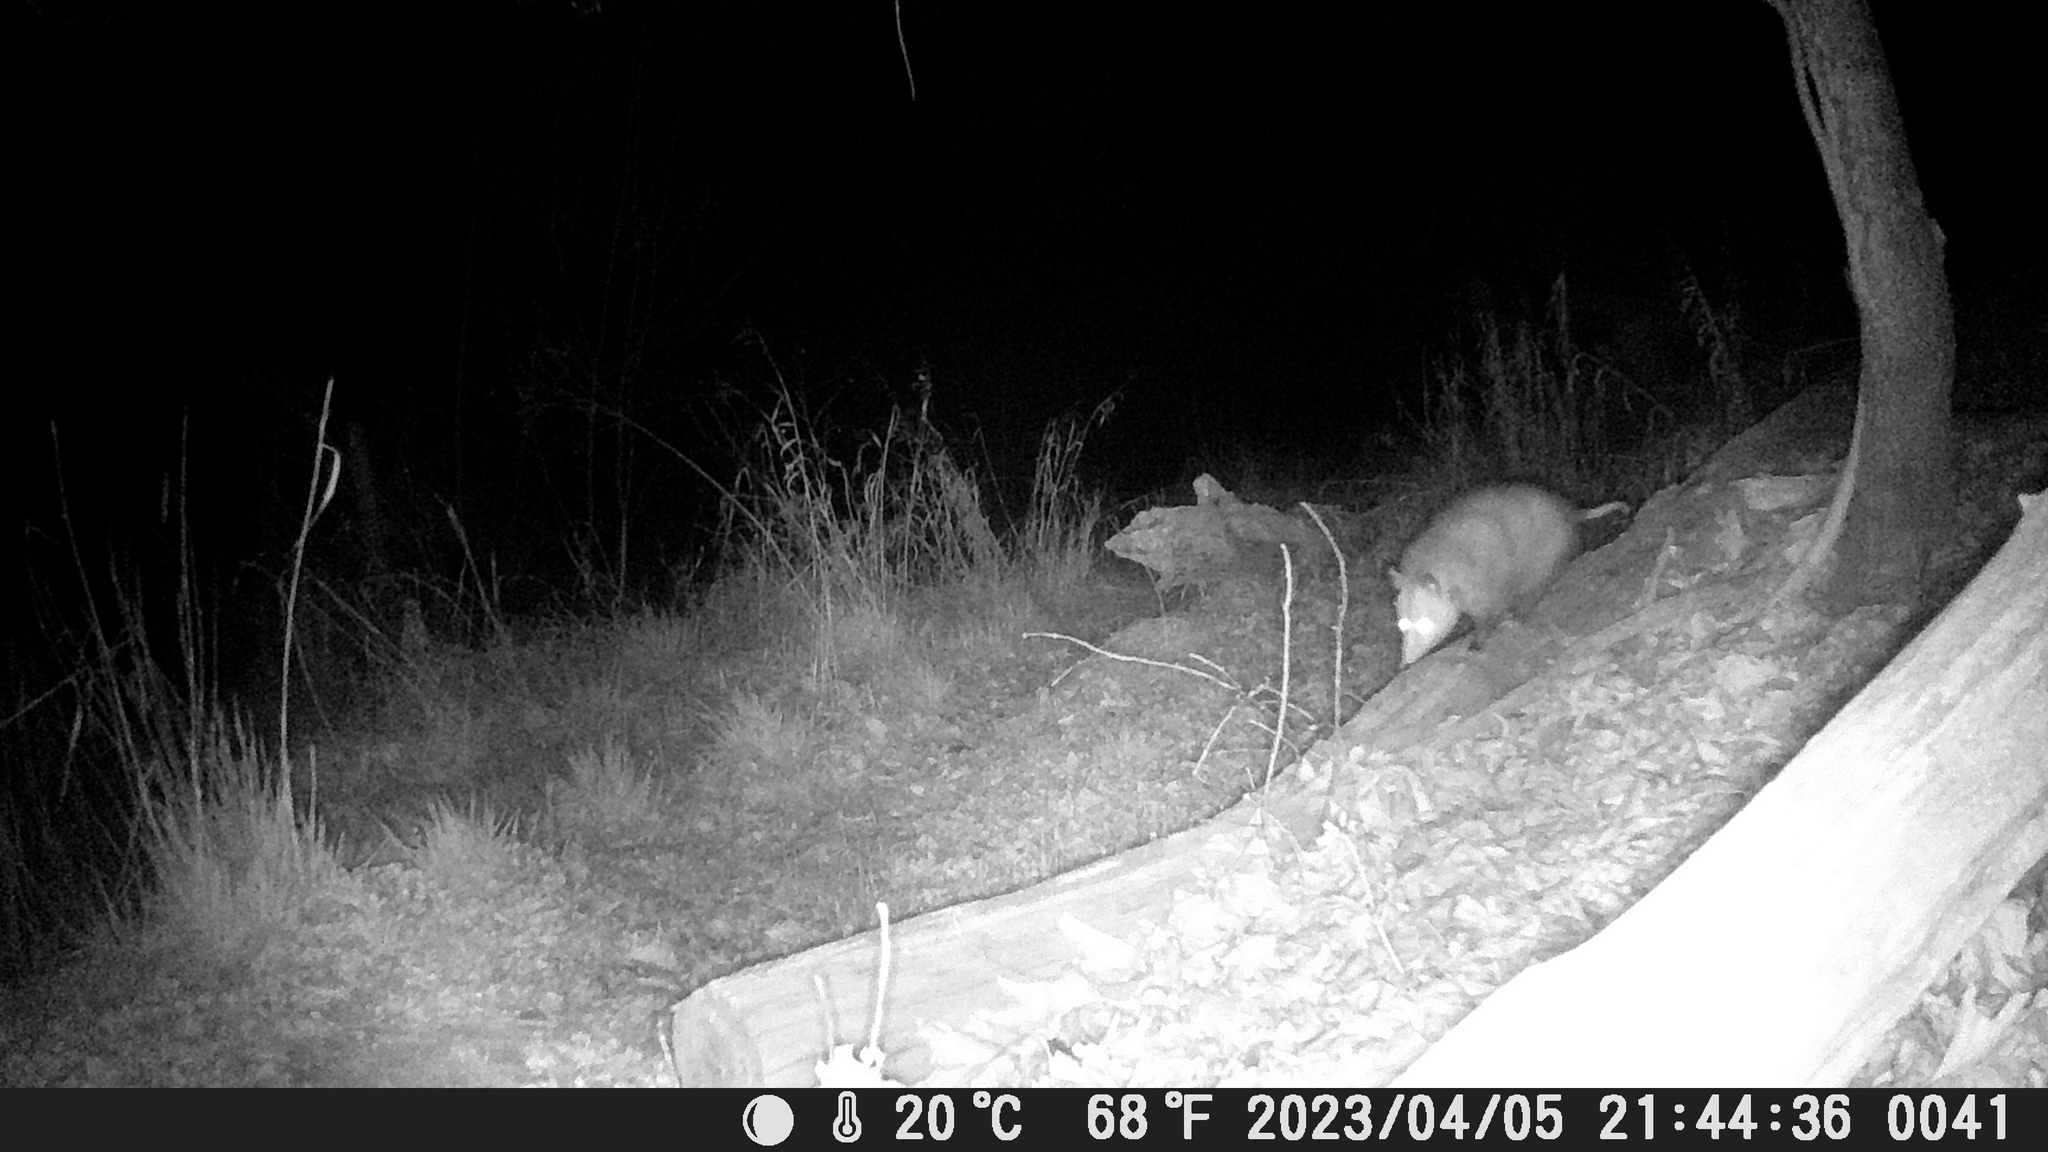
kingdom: Animalia
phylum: Chordata
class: Mammalia
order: Didelphimorphia
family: Didelphidae
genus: Didelphis
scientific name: Didelphis virginiana
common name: Virginia opossum
